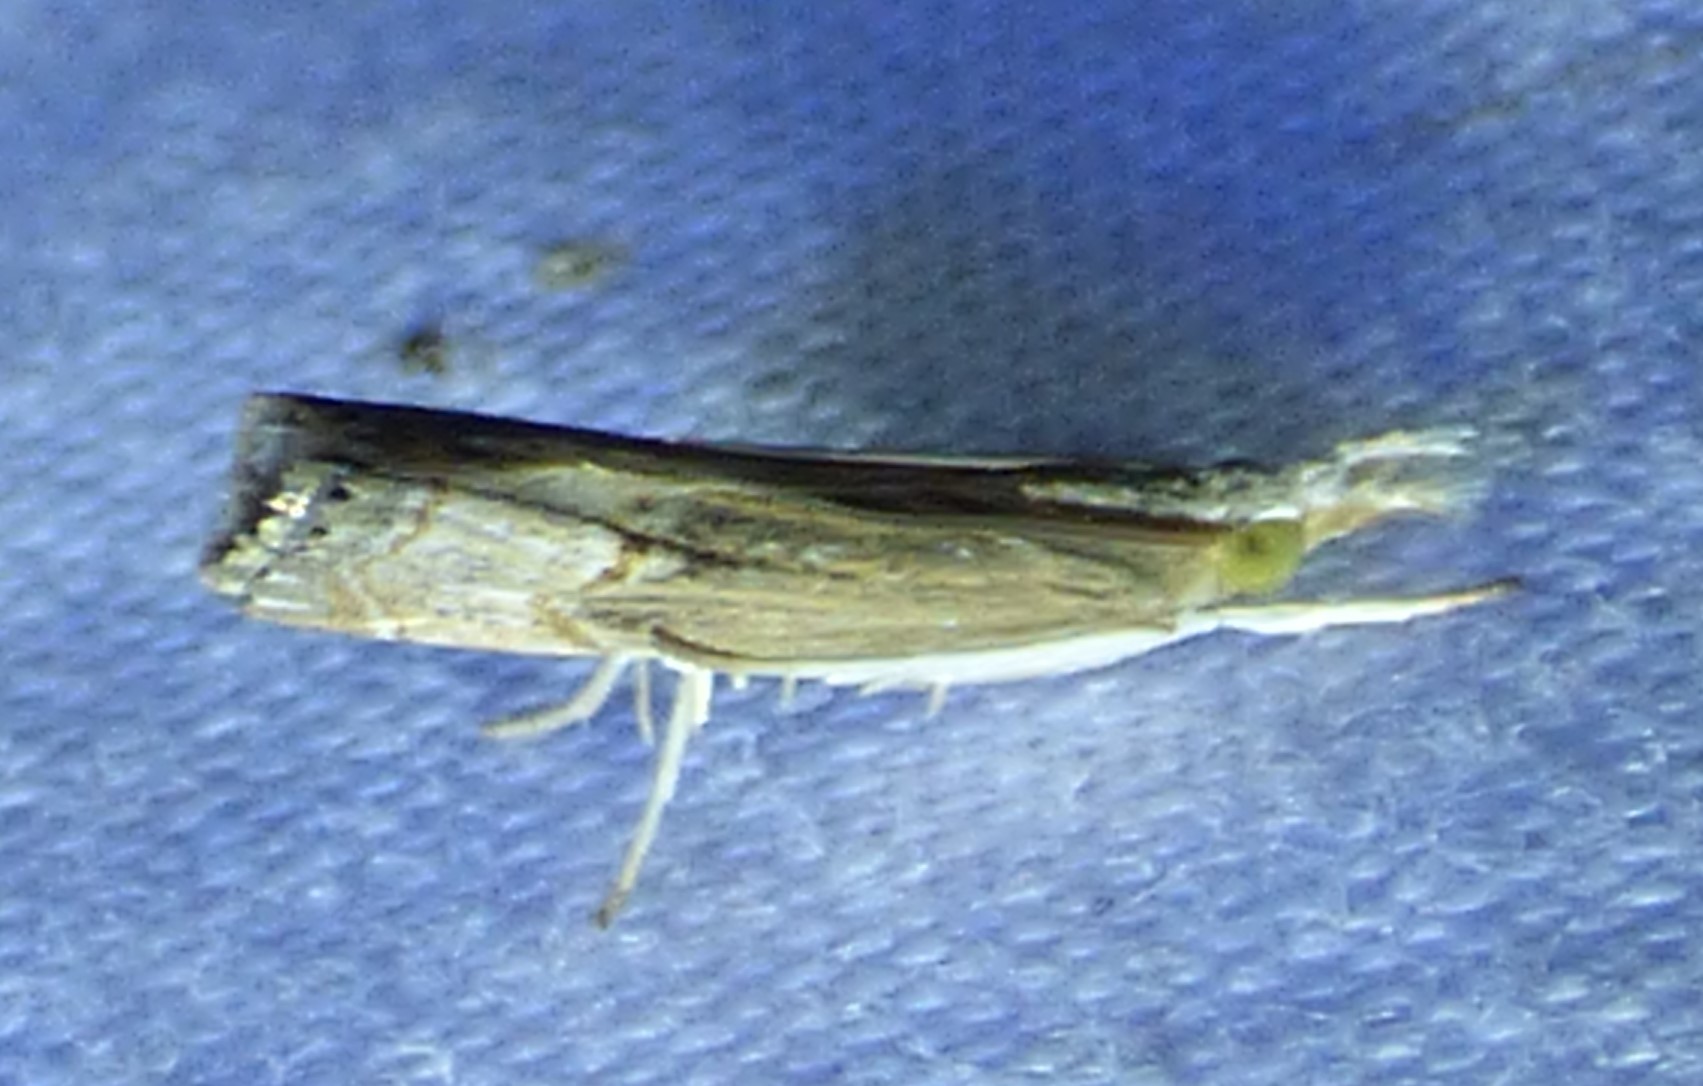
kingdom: Animalia
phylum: Arthropoda
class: Insecta
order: Lepidoptera
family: Crambidae
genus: Parapediasia
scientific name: Parapediasia teterellus
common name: Bluegrass webworm moth
